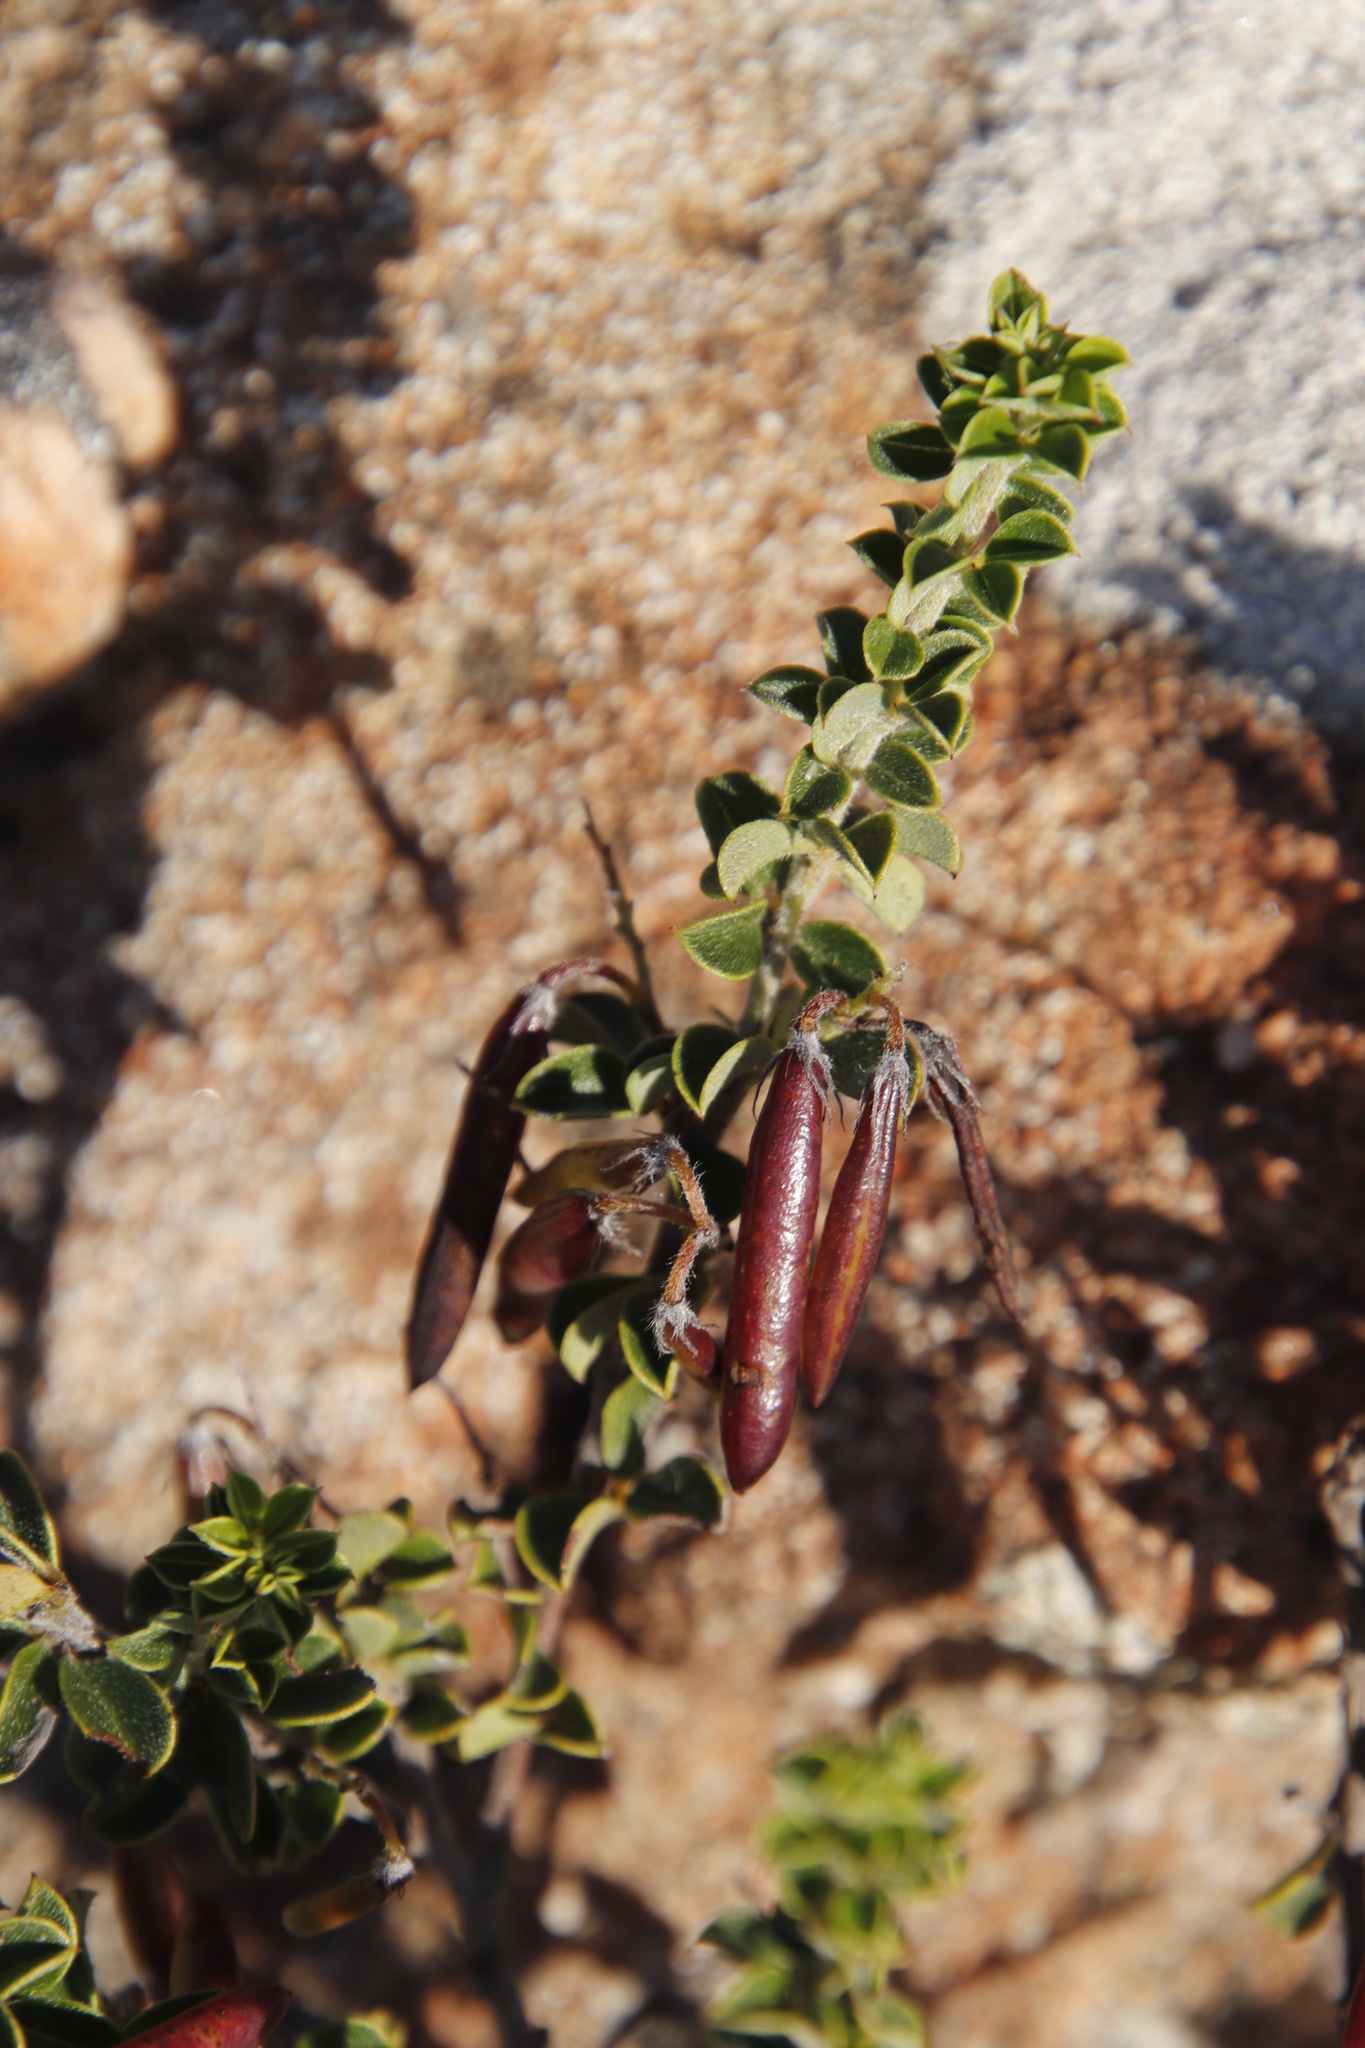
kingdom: Plantae
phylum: Tracheophyta
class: Magnoliopsida
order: Fabales
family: Fabaceae
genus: Indigofera
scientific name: Indigofera candolleana
